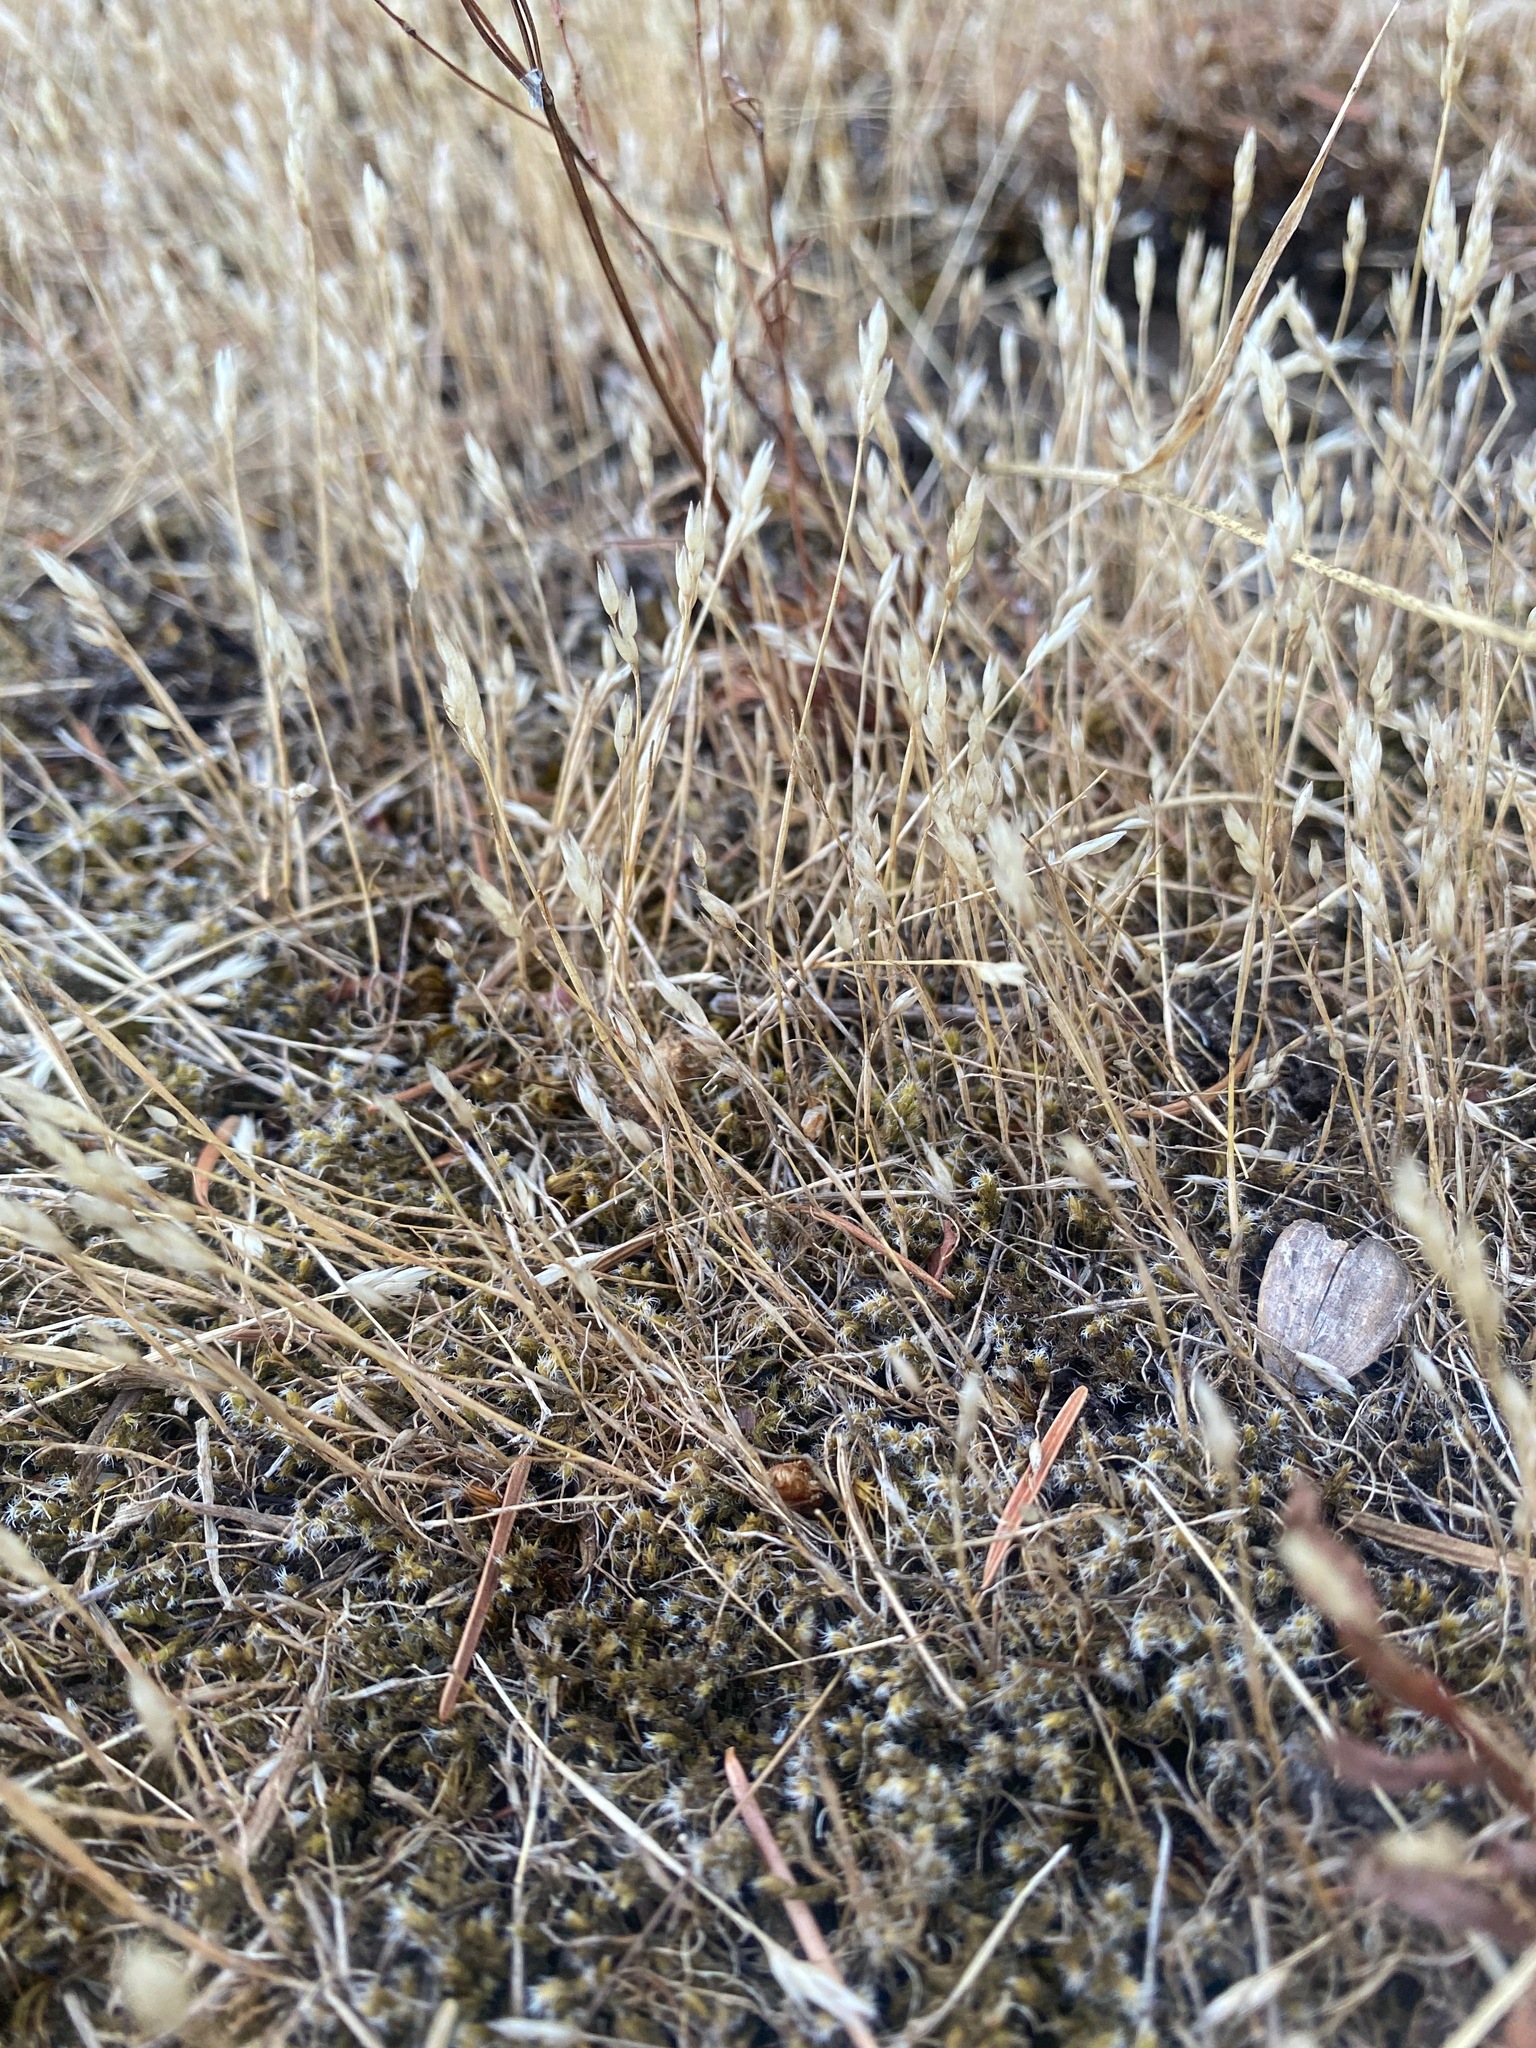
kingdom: Plantae
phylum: Tracheophyta
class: Liliopsida
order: Poales
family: Poaceae
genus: Aira
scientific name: Aira praecox
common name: Early hair-grass
